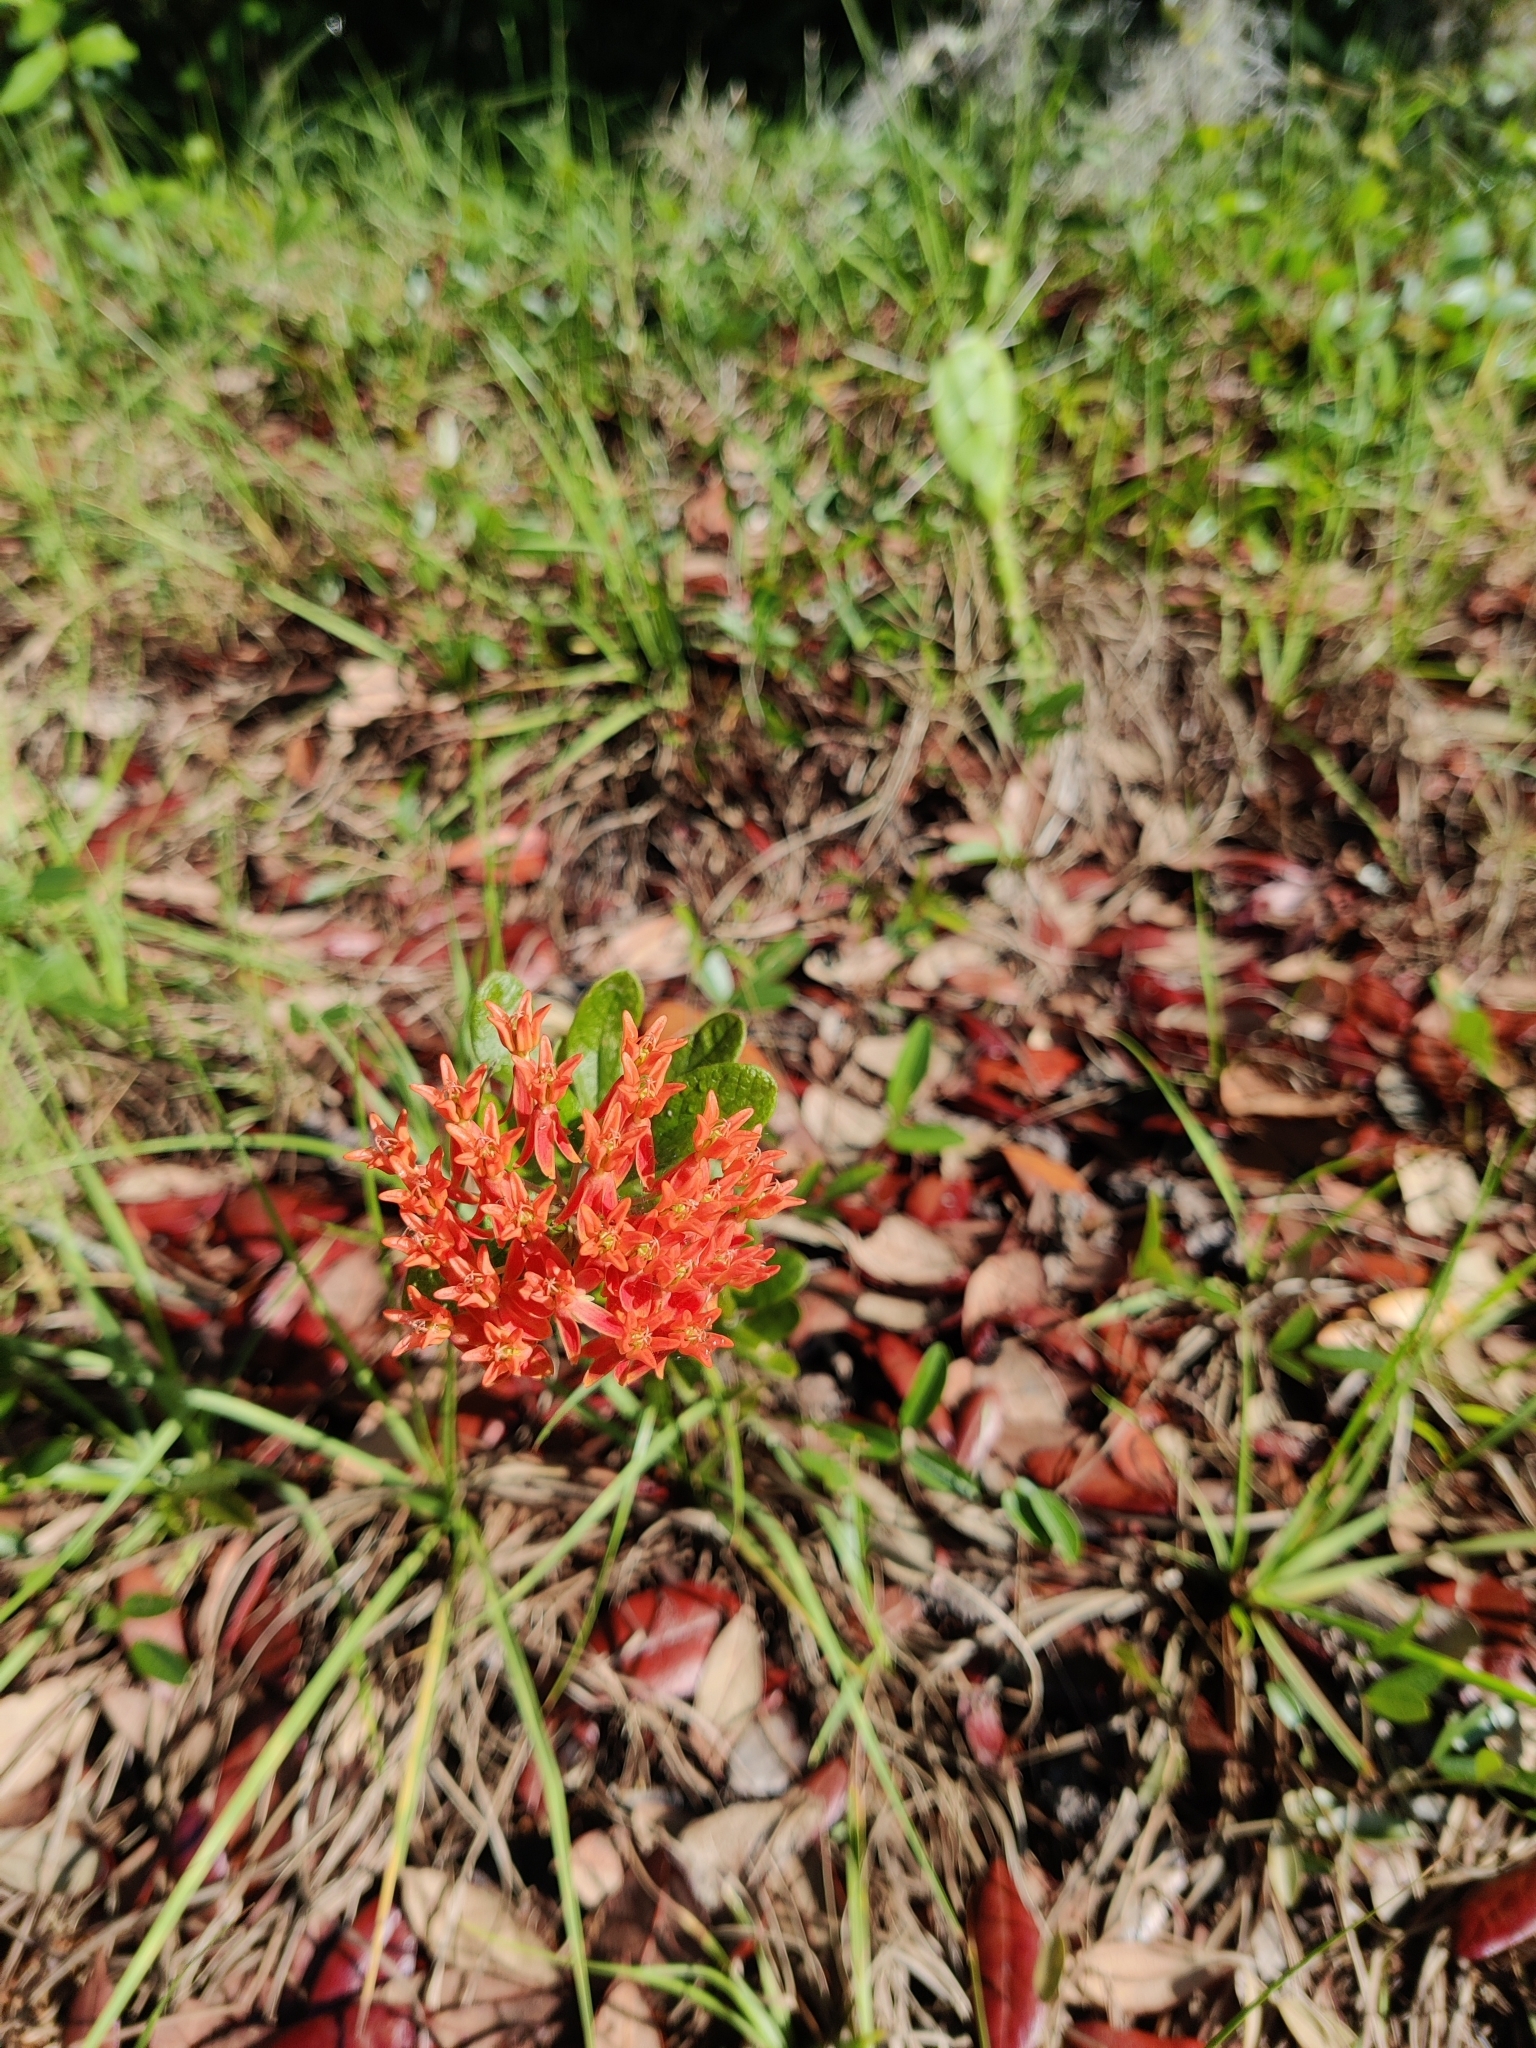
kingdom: Plantae
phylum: Tracheophyta
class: Magnoliopsida
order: Gentianales
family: Apocynaceae
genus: Asclepias
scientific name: Asclepias tuberosa
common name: Butterfly milkweed
